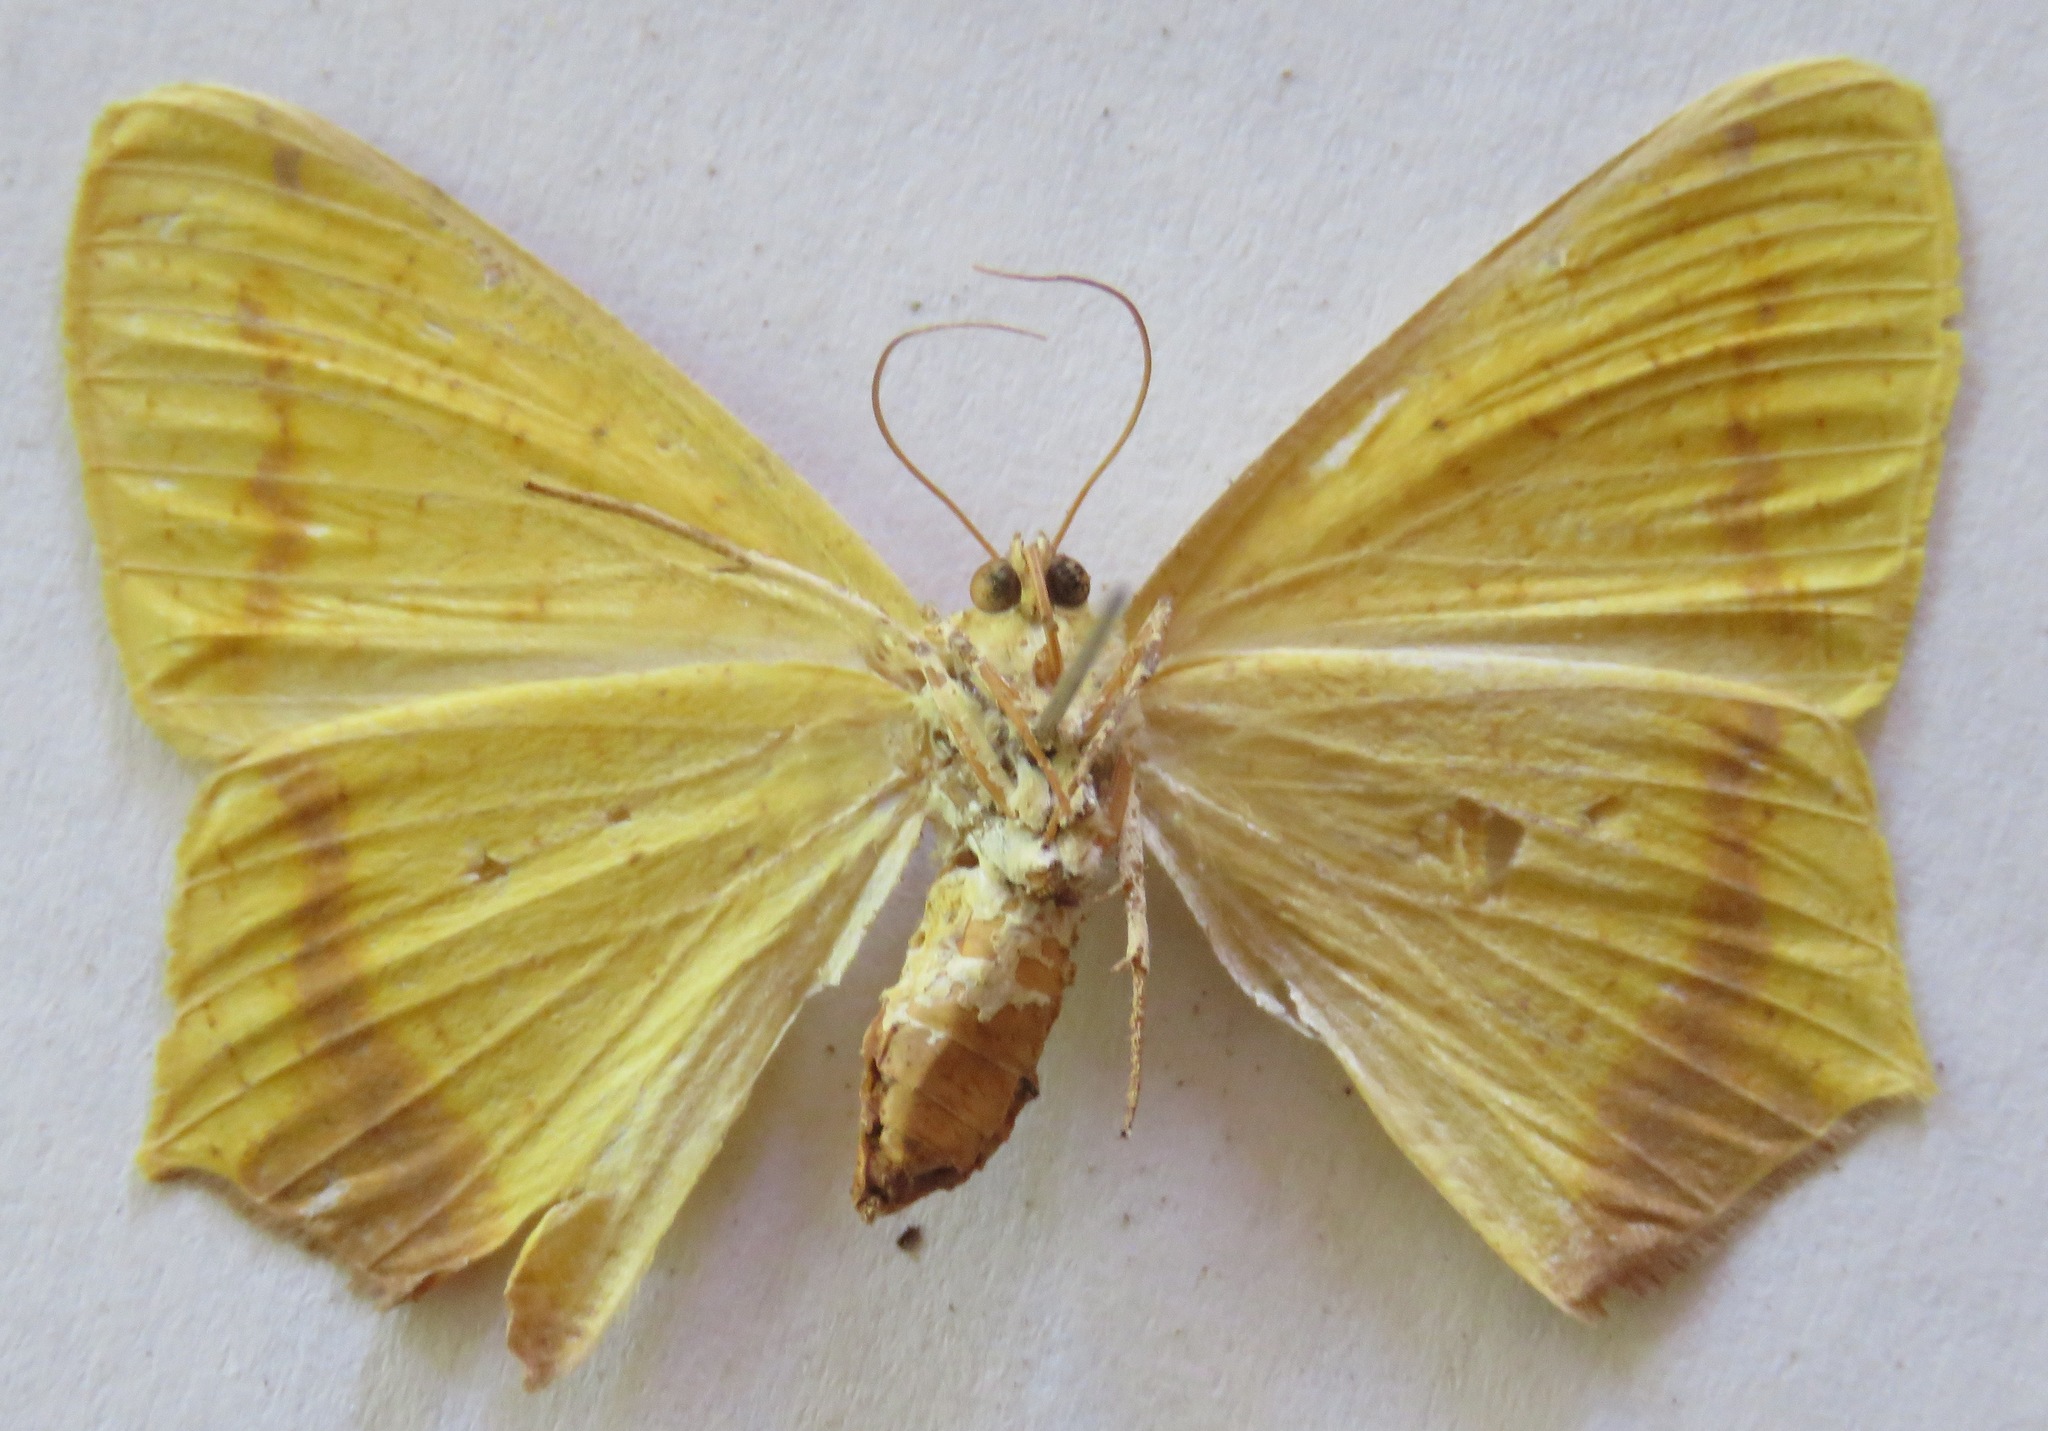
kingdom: Animalia
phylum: Arthropoda
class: Insecta
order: Lepidoptera
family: Geometridae
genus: Nepheloleuca
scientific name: Nepheloleuca politia
